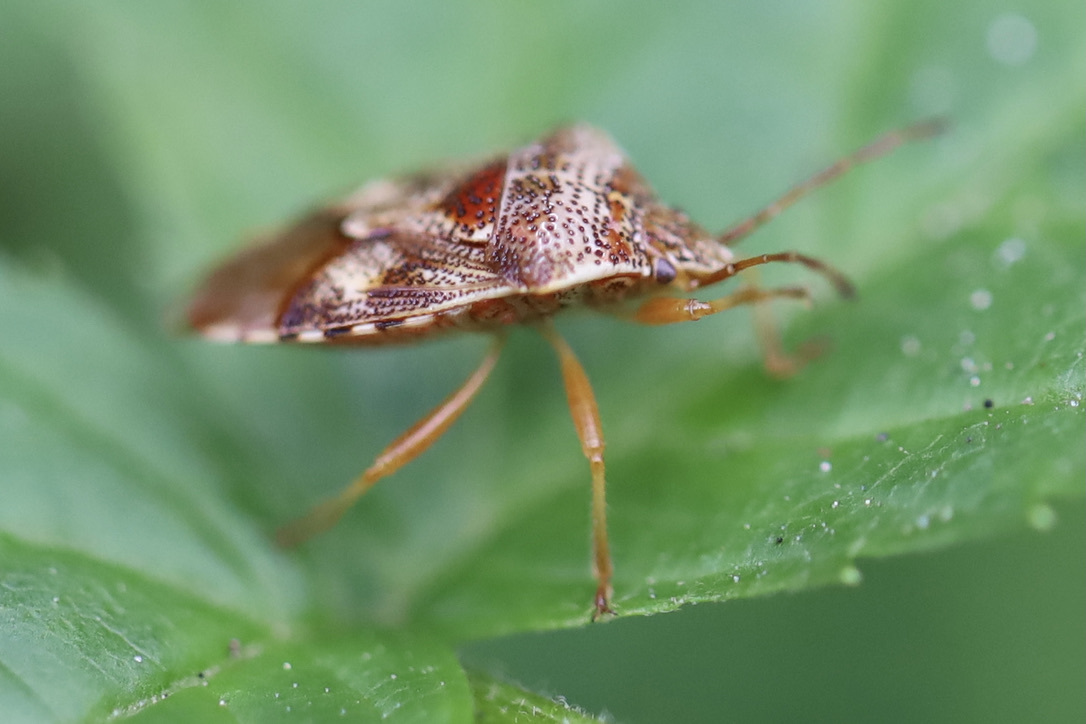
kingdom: Animalia
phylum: Arthropoda
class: Insecta
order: Hemiptera
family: Acanthosomatidae
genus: Elasmucha
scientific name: Elasmucha lateralis
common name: Shield bug
